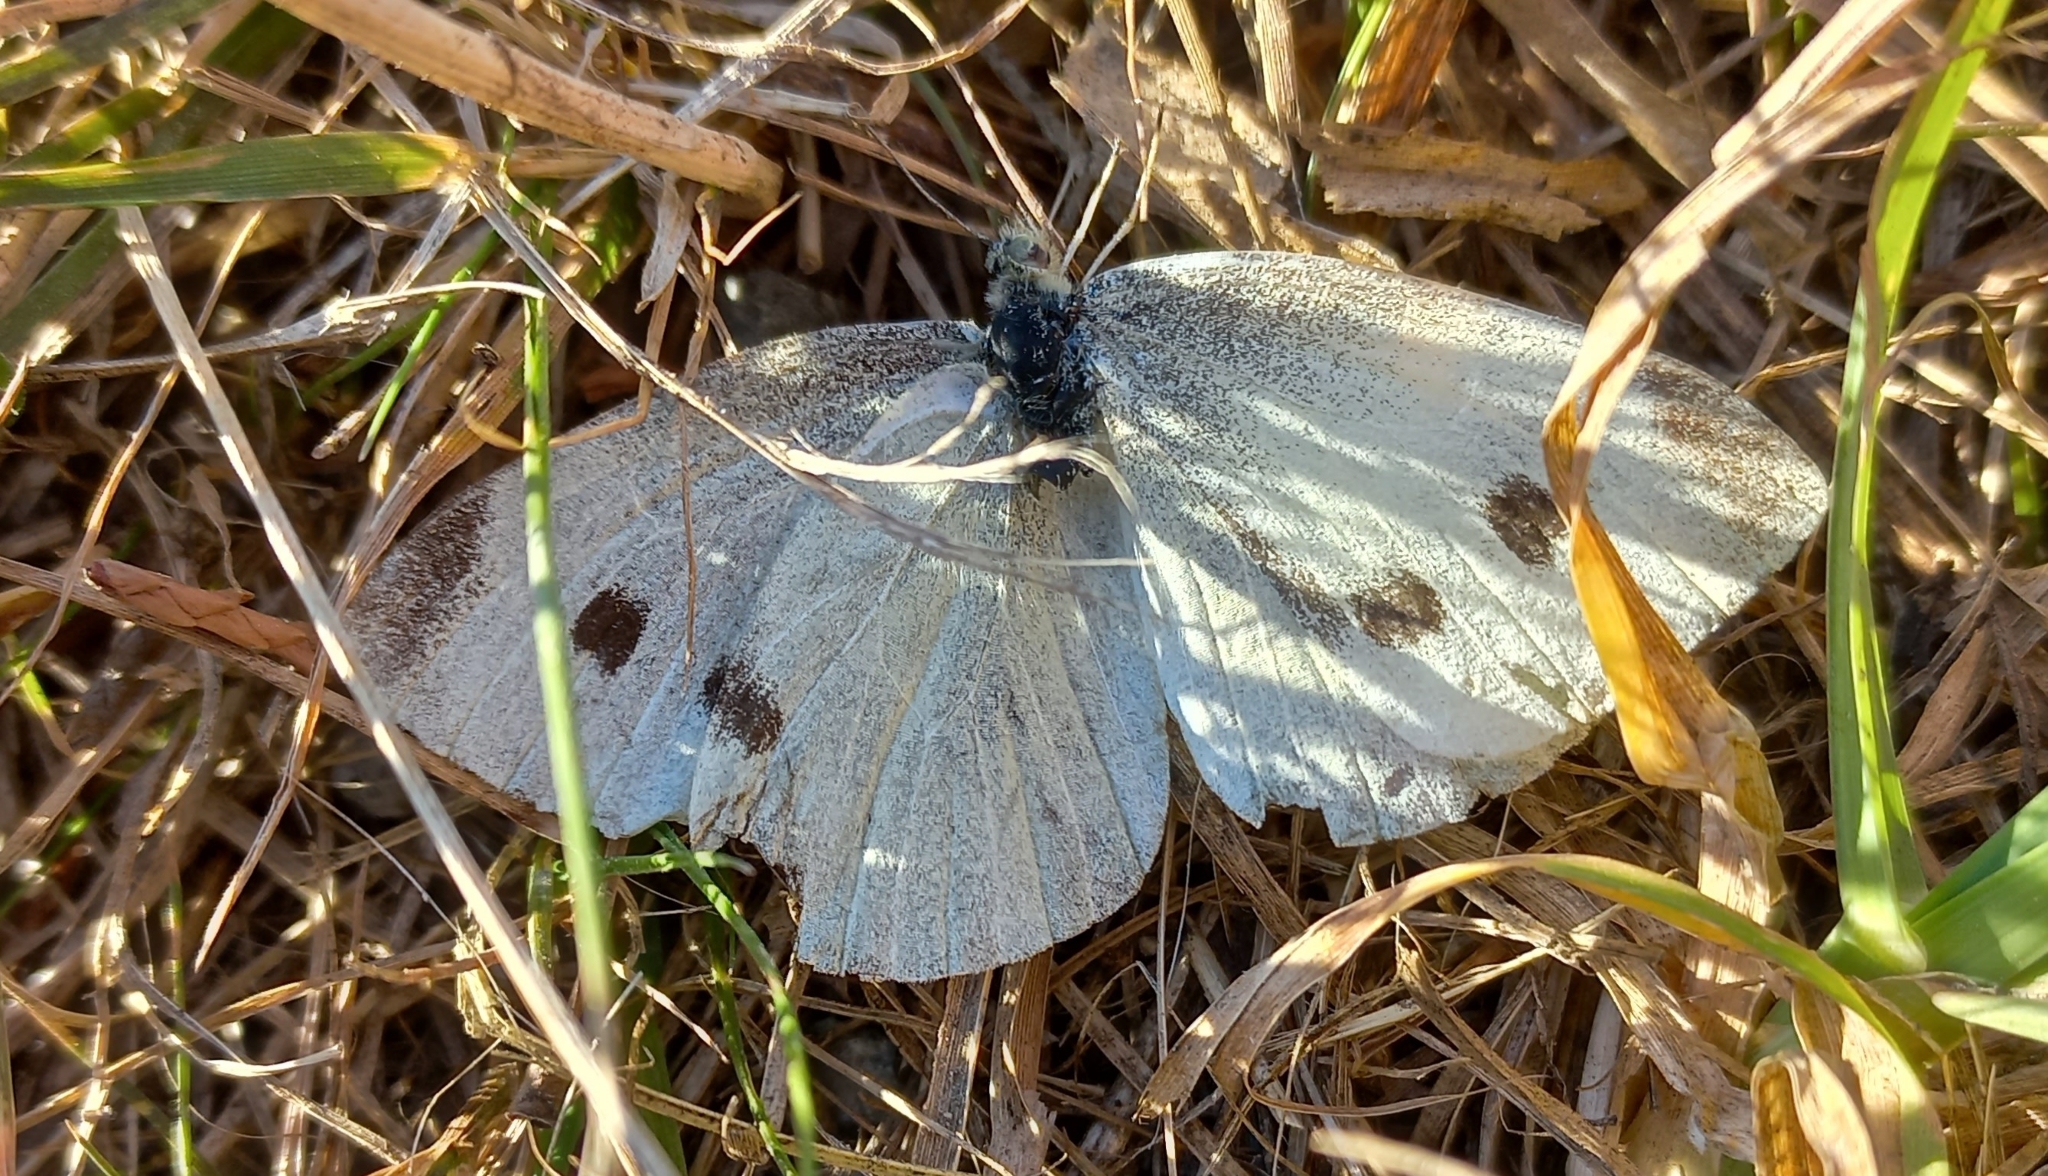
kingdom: Animalia
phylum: Arthropoda
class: Insecta
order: Lepidoptera
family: Pieridae
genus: Pieris
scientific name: Pieris rapae
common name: Small white
